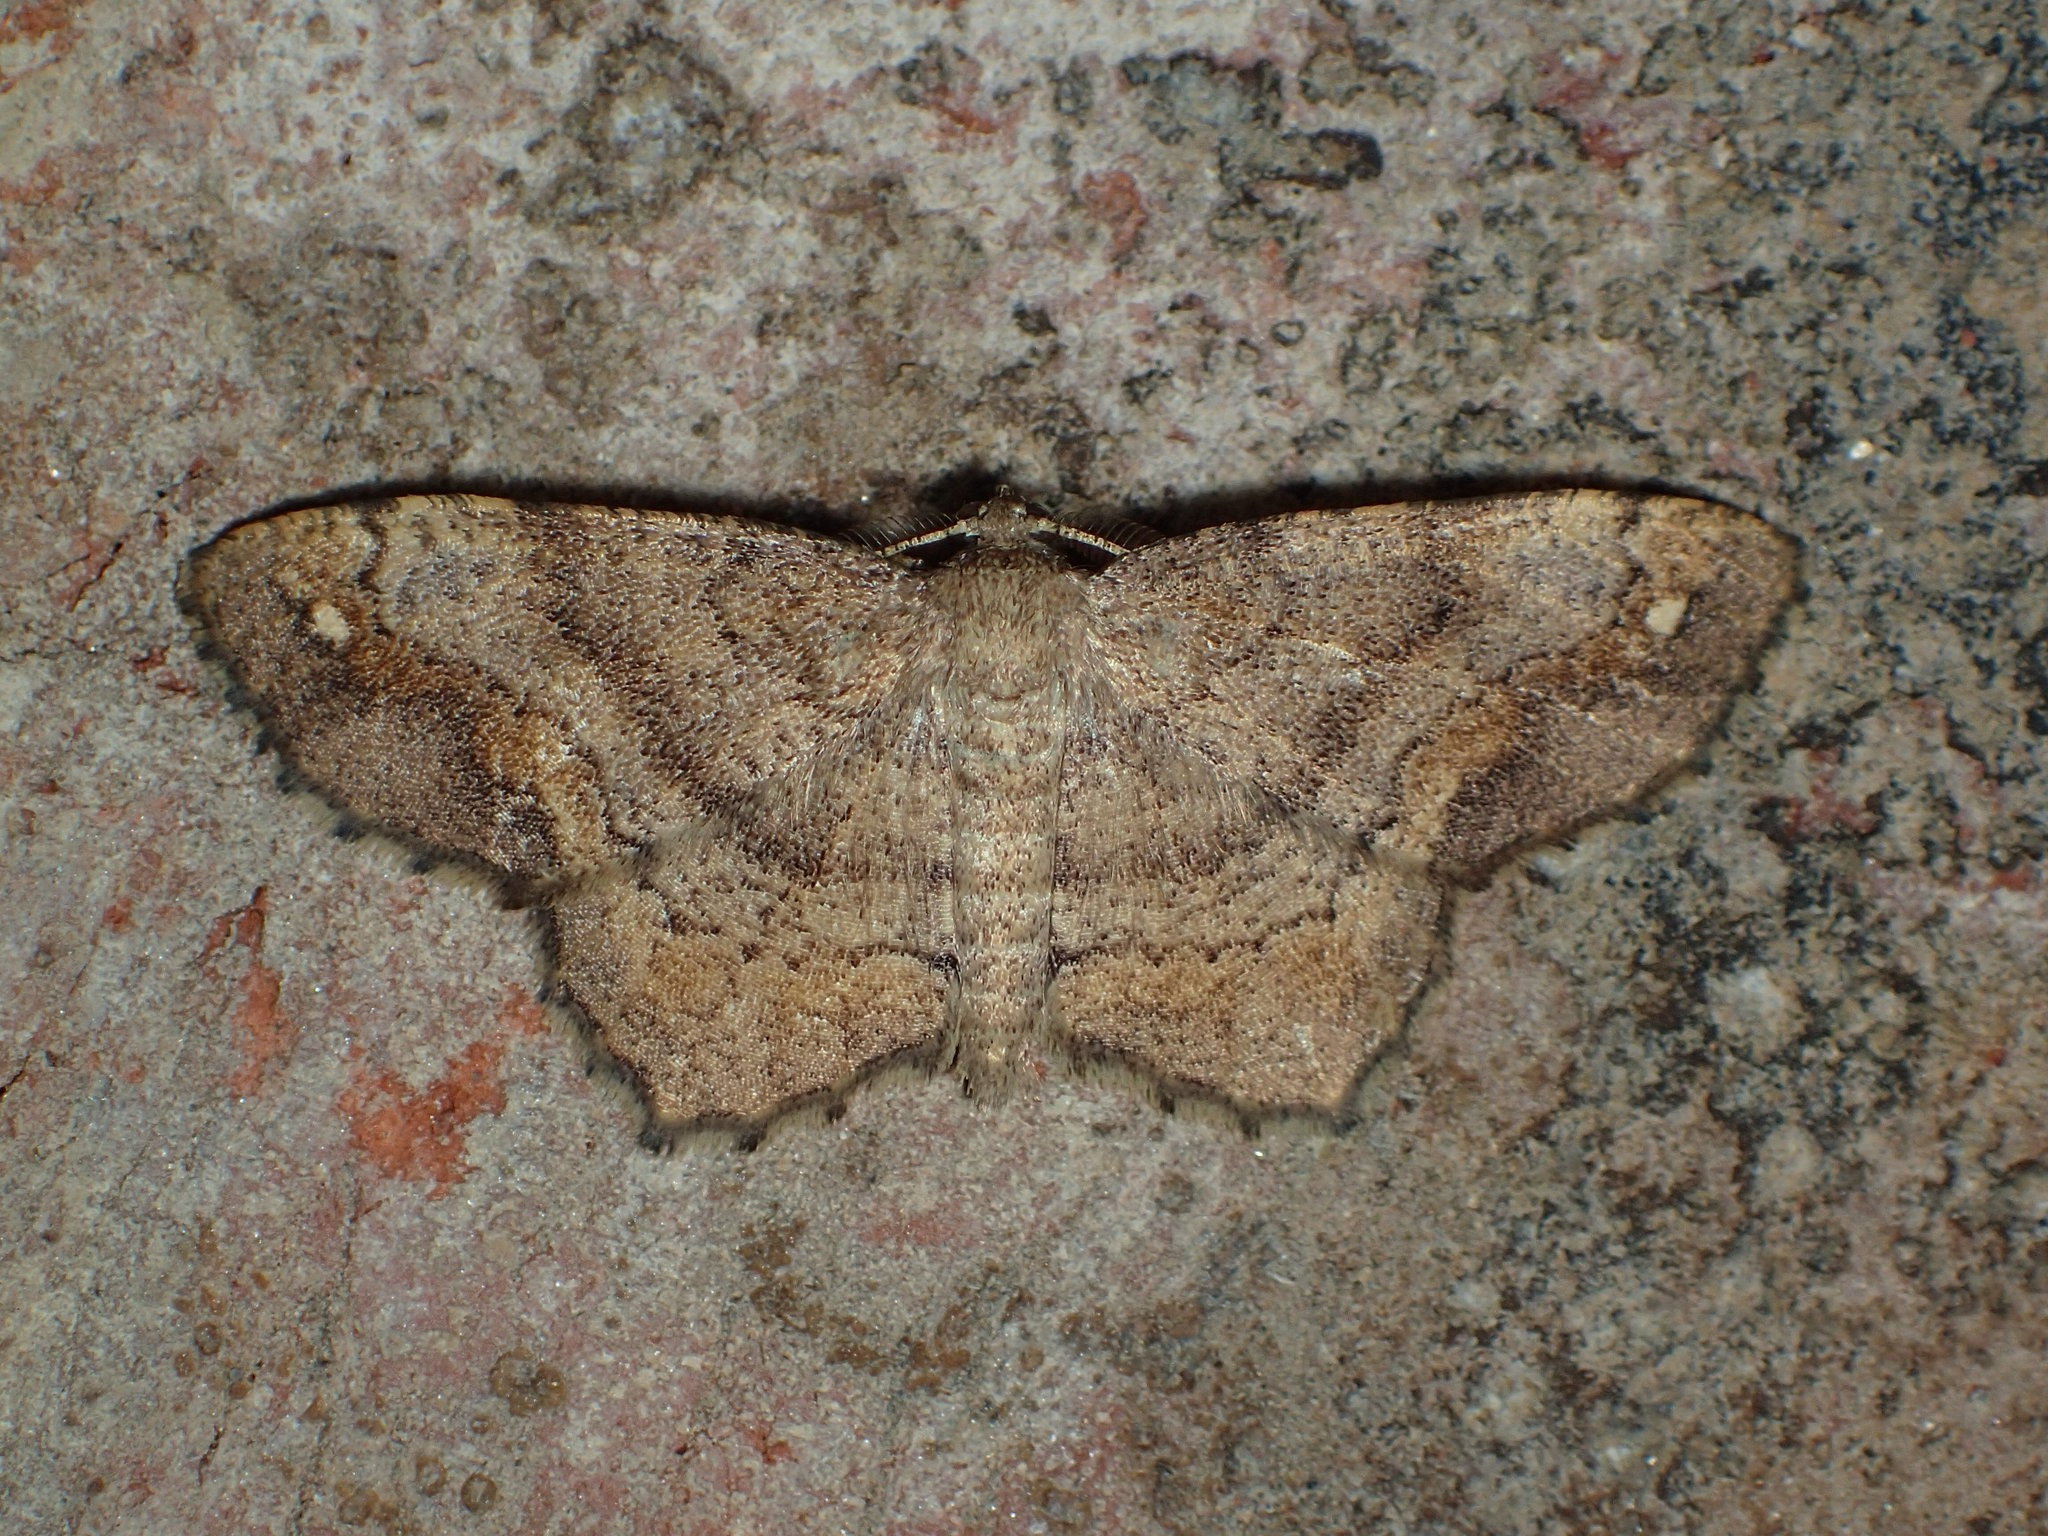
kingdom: Animalia
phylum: Arthropoda
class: Insecta
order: Lepidoptera
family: Geometridae
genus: Hypagyrtis
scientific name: Hypagyrtis unipunctata
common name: One-spotted variant
